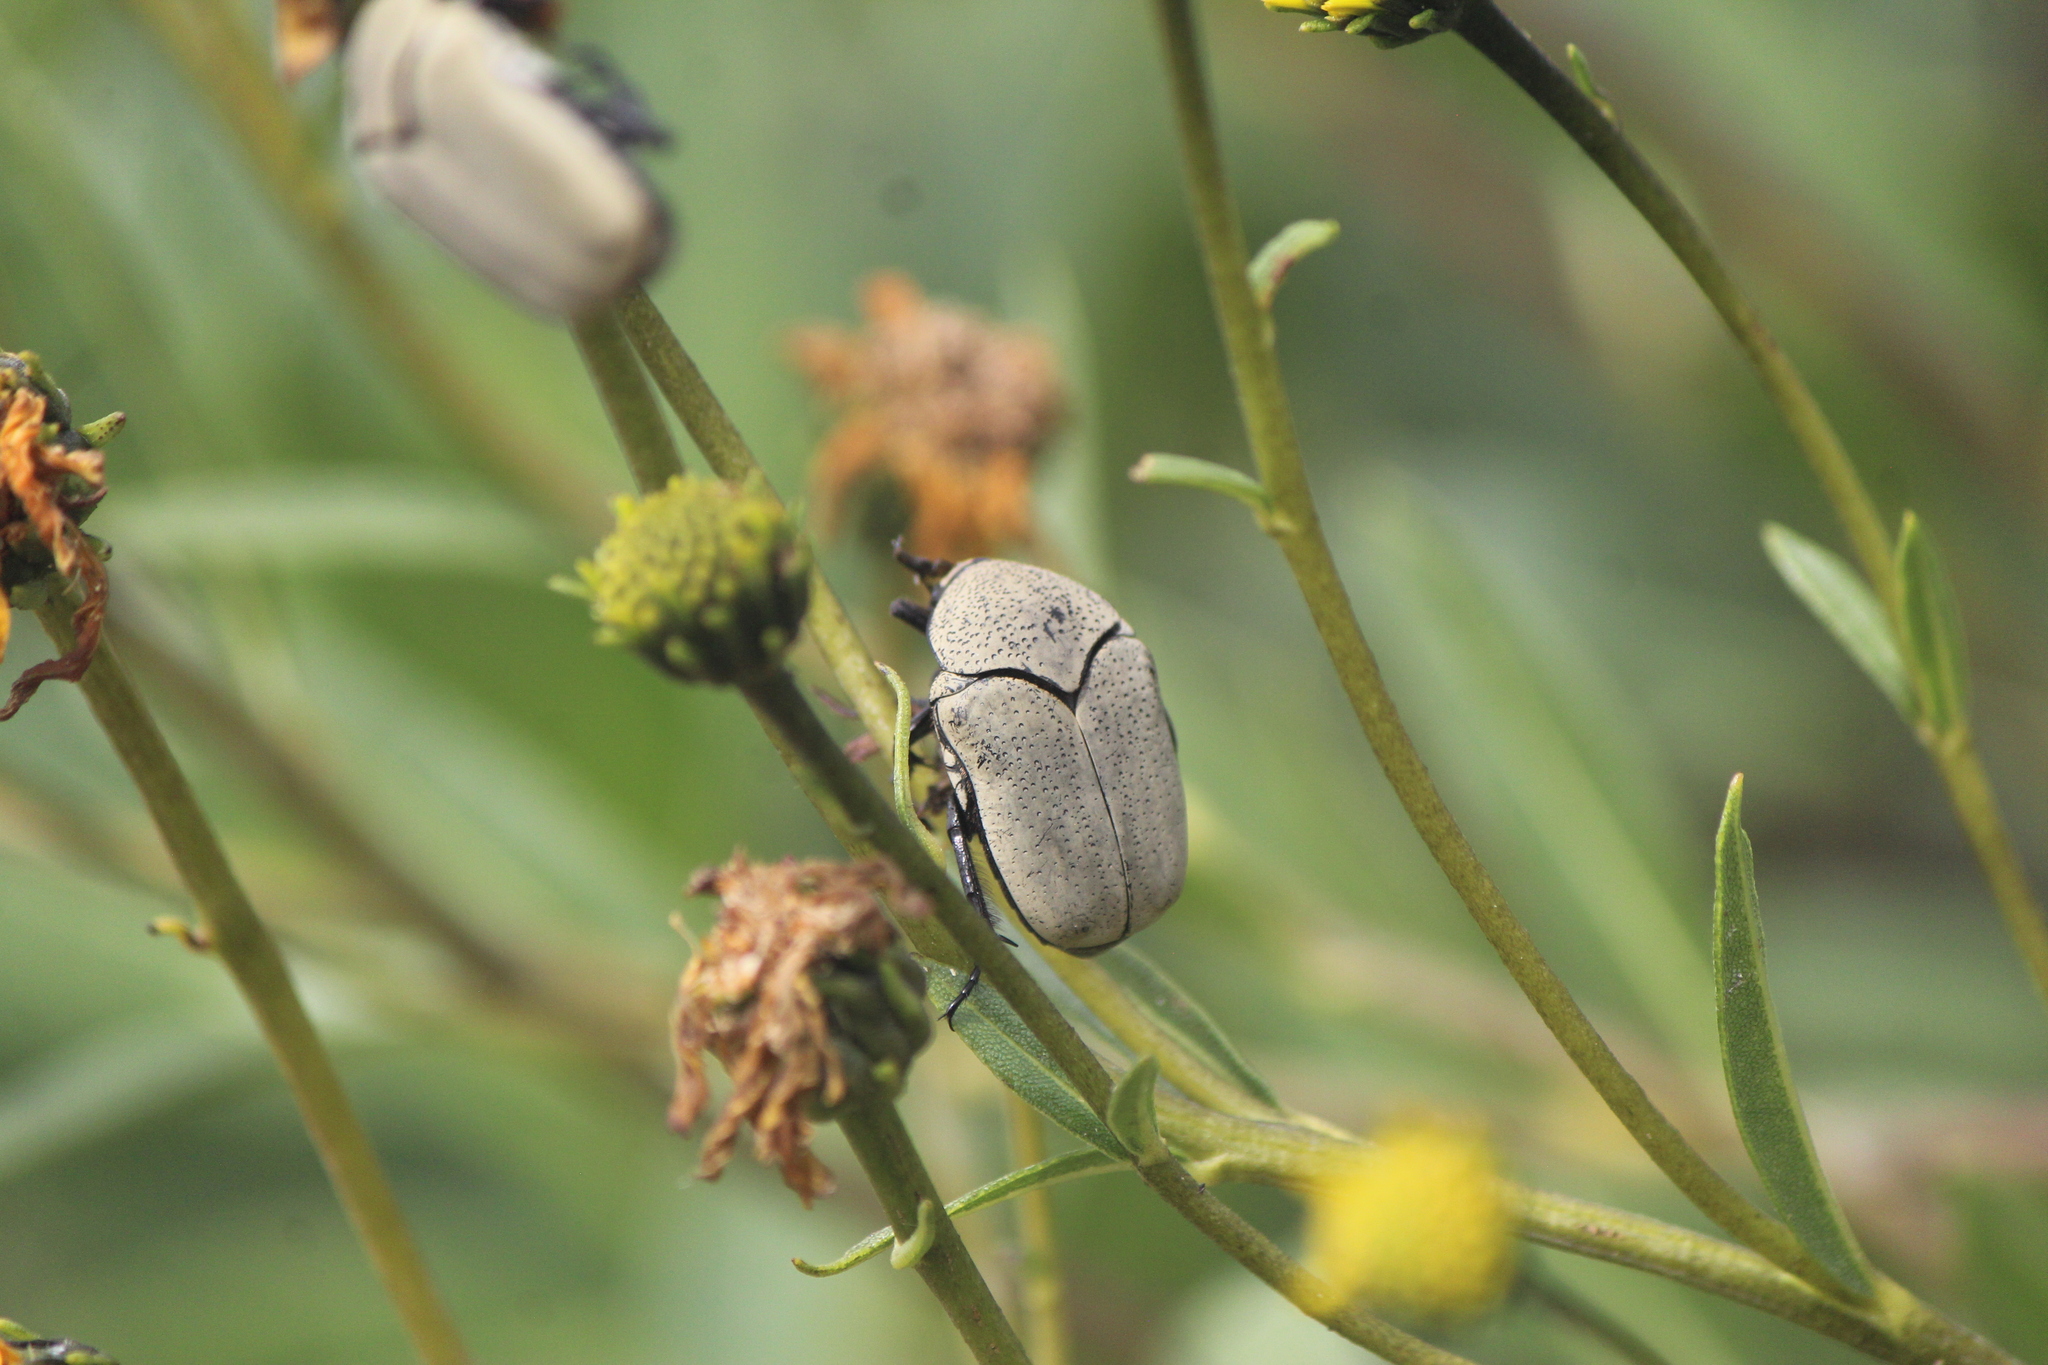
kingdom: Animalia
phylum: Arthropoda
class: Insecta
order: Coleoptera
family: Scarabaeidae
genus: Hologymnetis
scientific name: Hologymnetis cinerea
